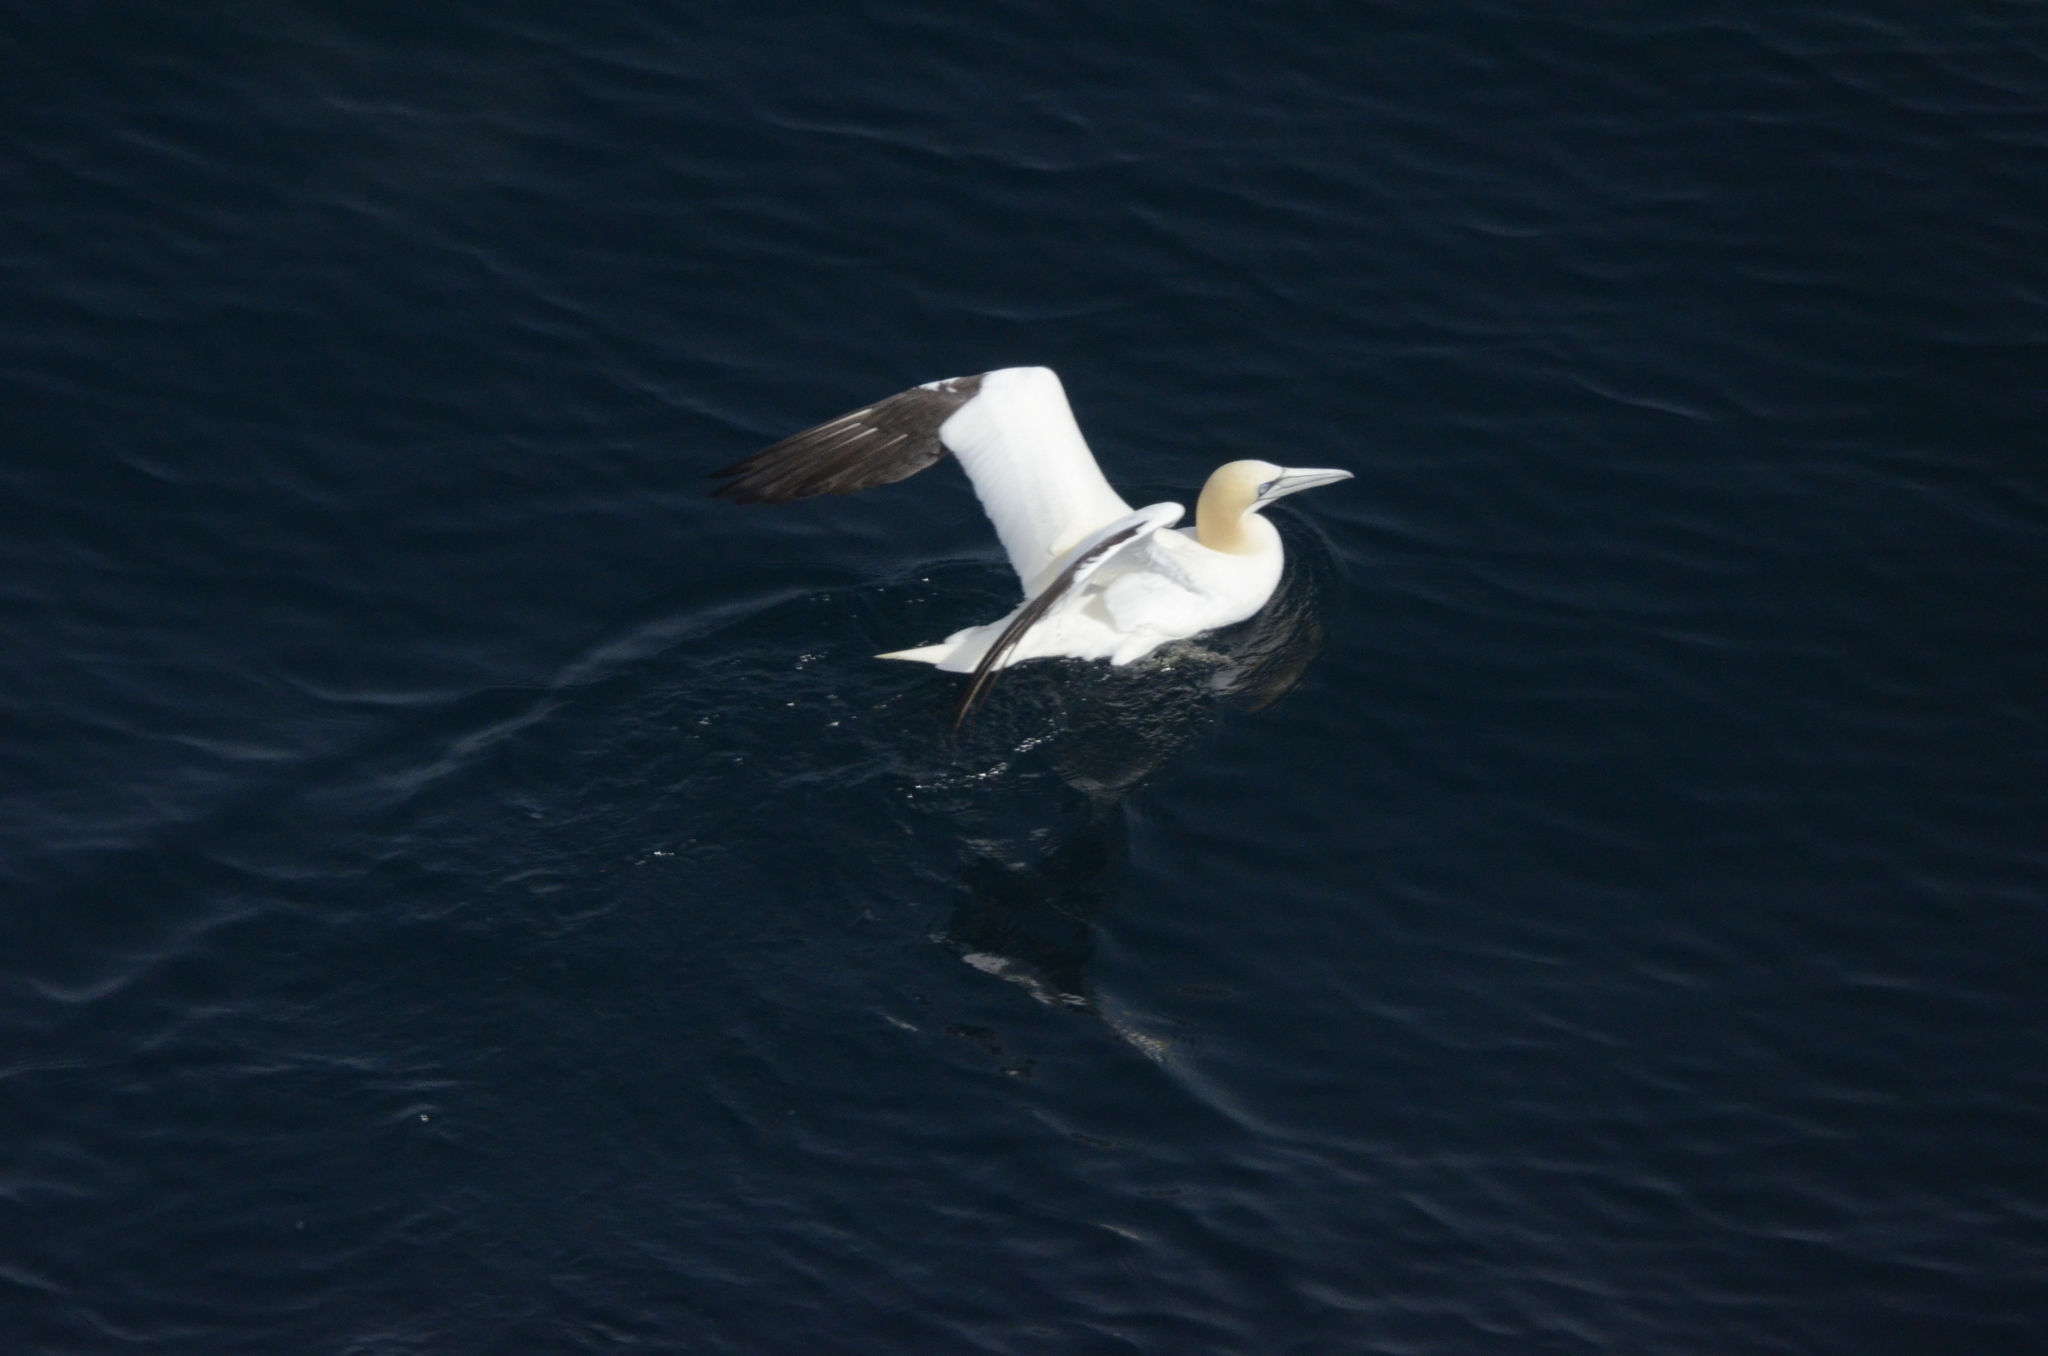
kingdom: Animalia
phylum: Chordata
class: Aves
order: Suliformes
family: Sulidae
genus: Morus
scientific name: Morus bassanus
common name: Northern gannet
